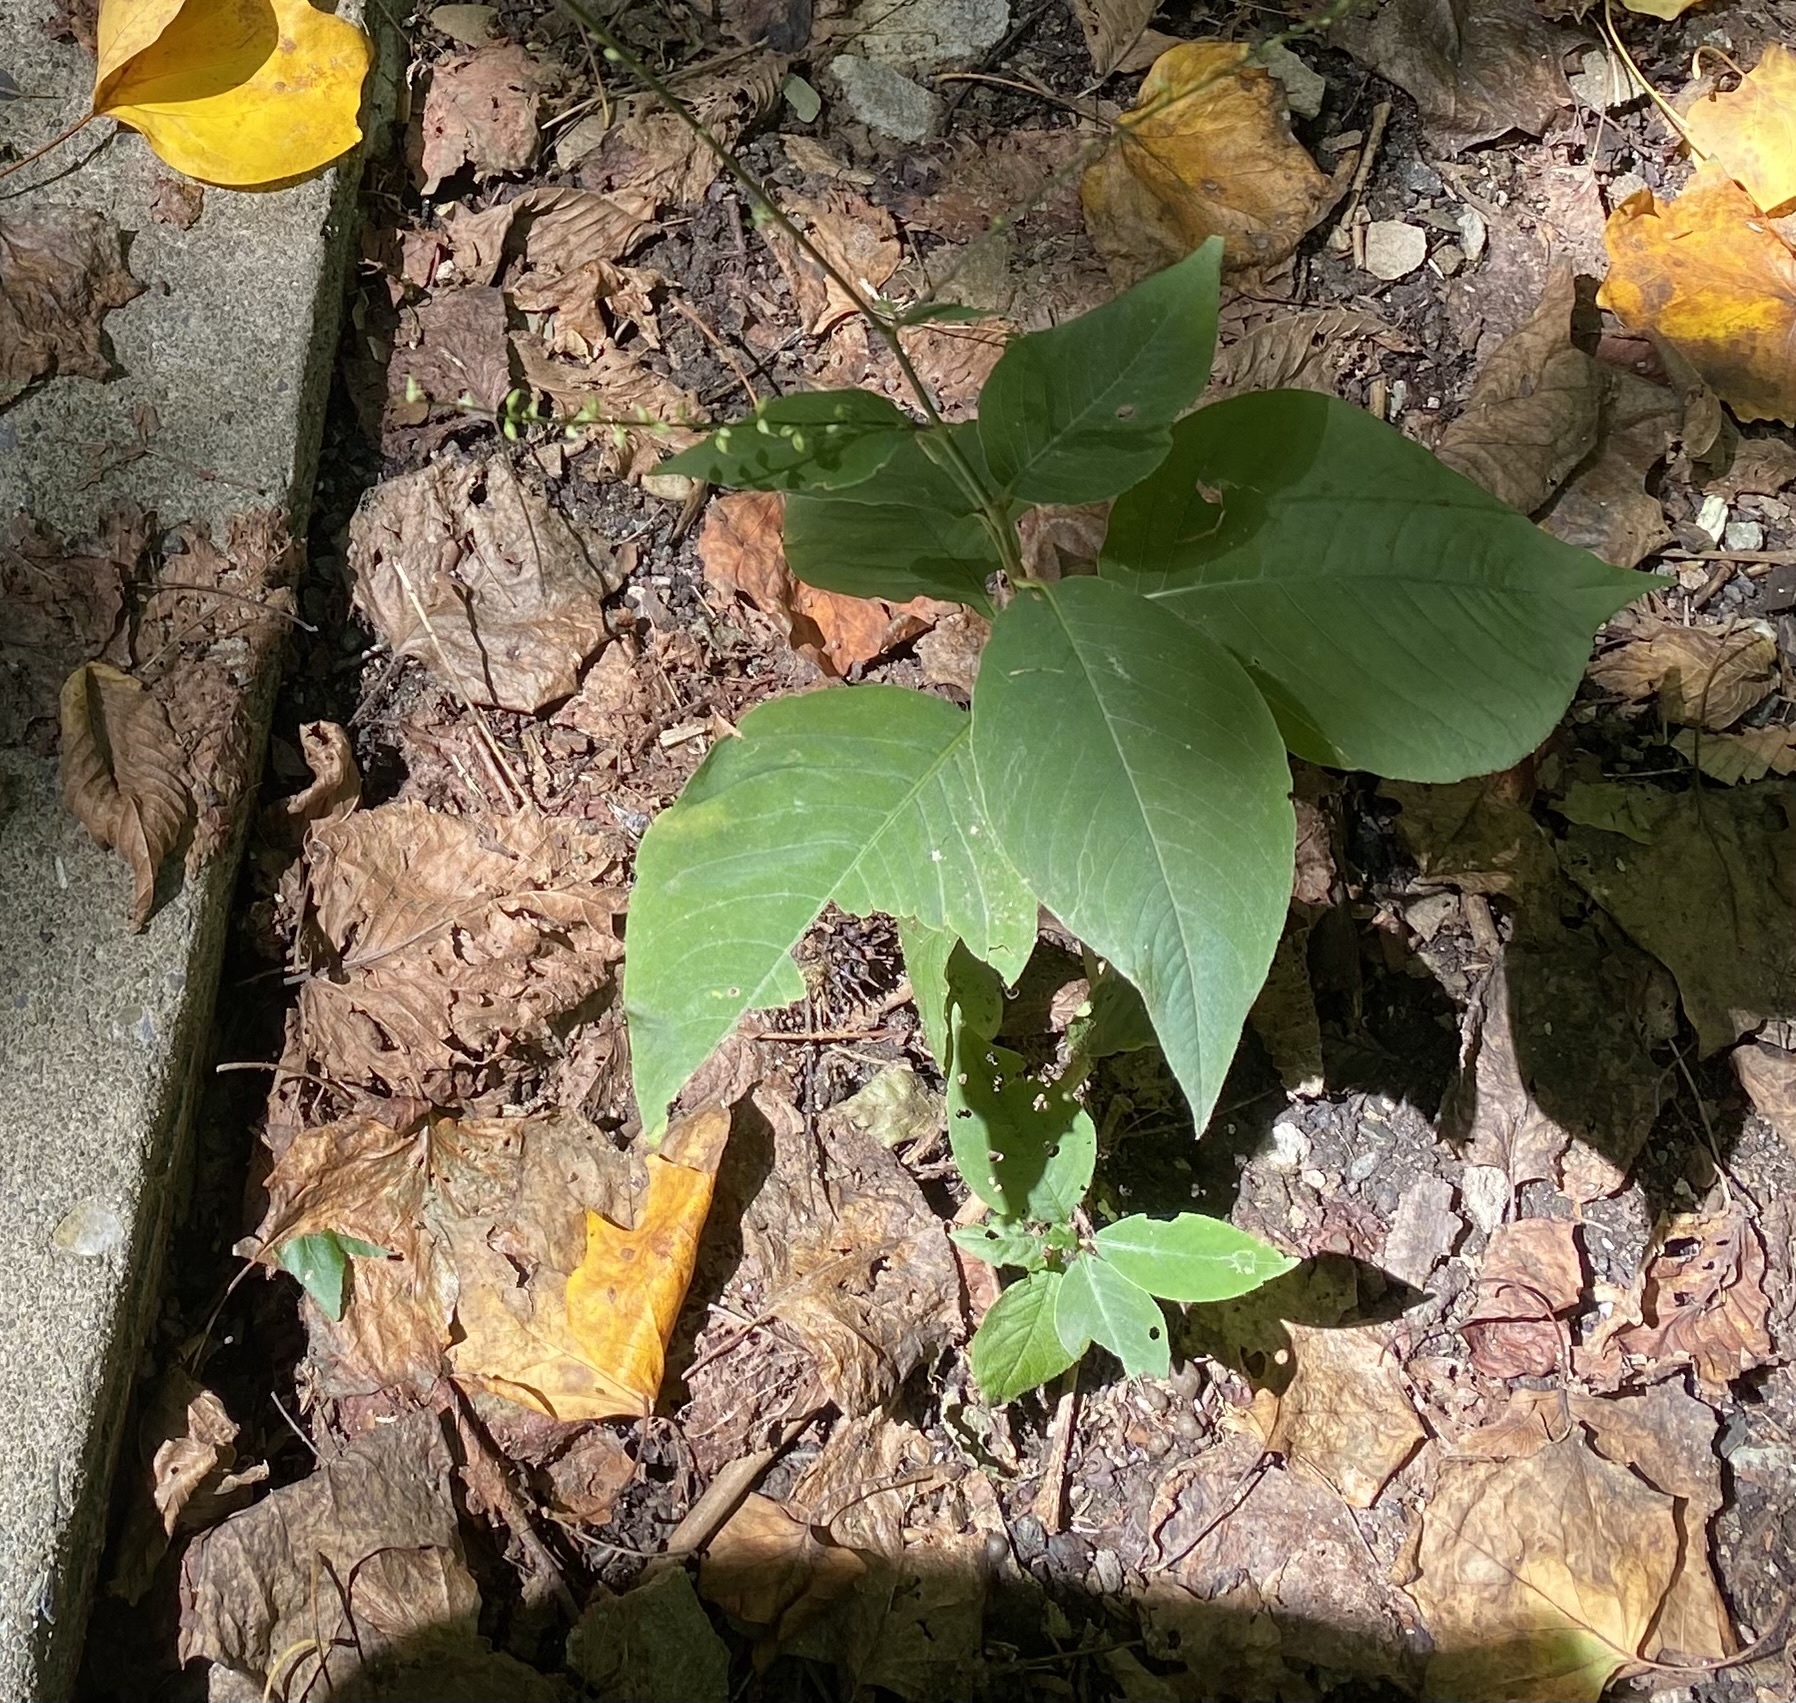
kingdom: Plantae
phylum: Tracheophyta
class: Magnoliopsida
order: Caryophyllales
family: Polygonaceae
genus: Persicaria
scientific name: Persicaria virginiana
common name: Jumpseed
